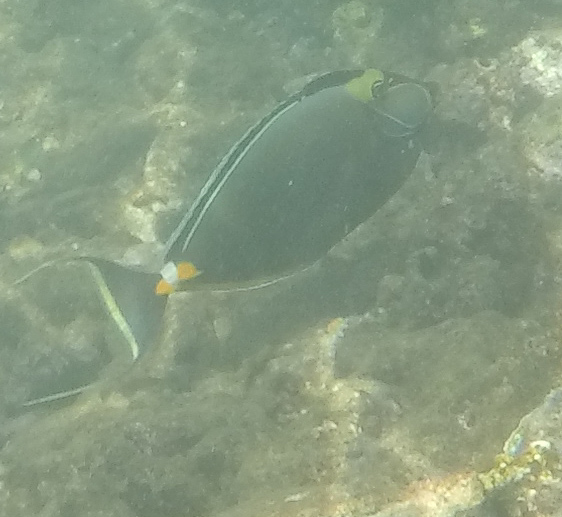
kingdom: Animalia
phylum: Chordata
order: Perciformes
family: Acanthuridae
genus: Naso
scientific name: Naso lituratus
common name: Orangespine unicornfish
